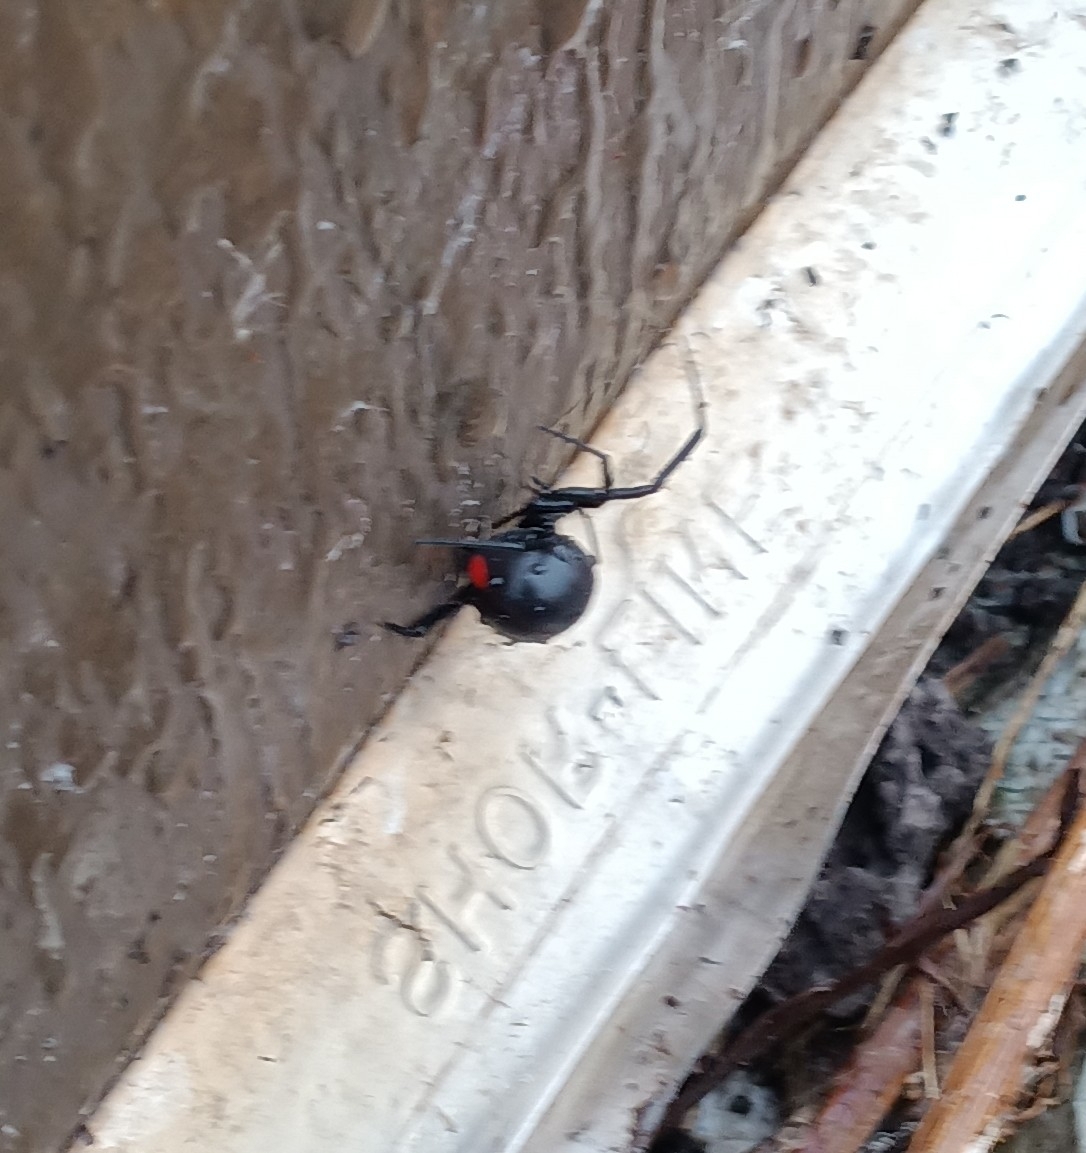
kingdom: Animalia
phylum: Arthropoda
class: Arachnida
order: Araneae
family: Theridiidae
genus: Latrodectus
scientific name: Latrodectus mactans
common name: Cobweb spiders
